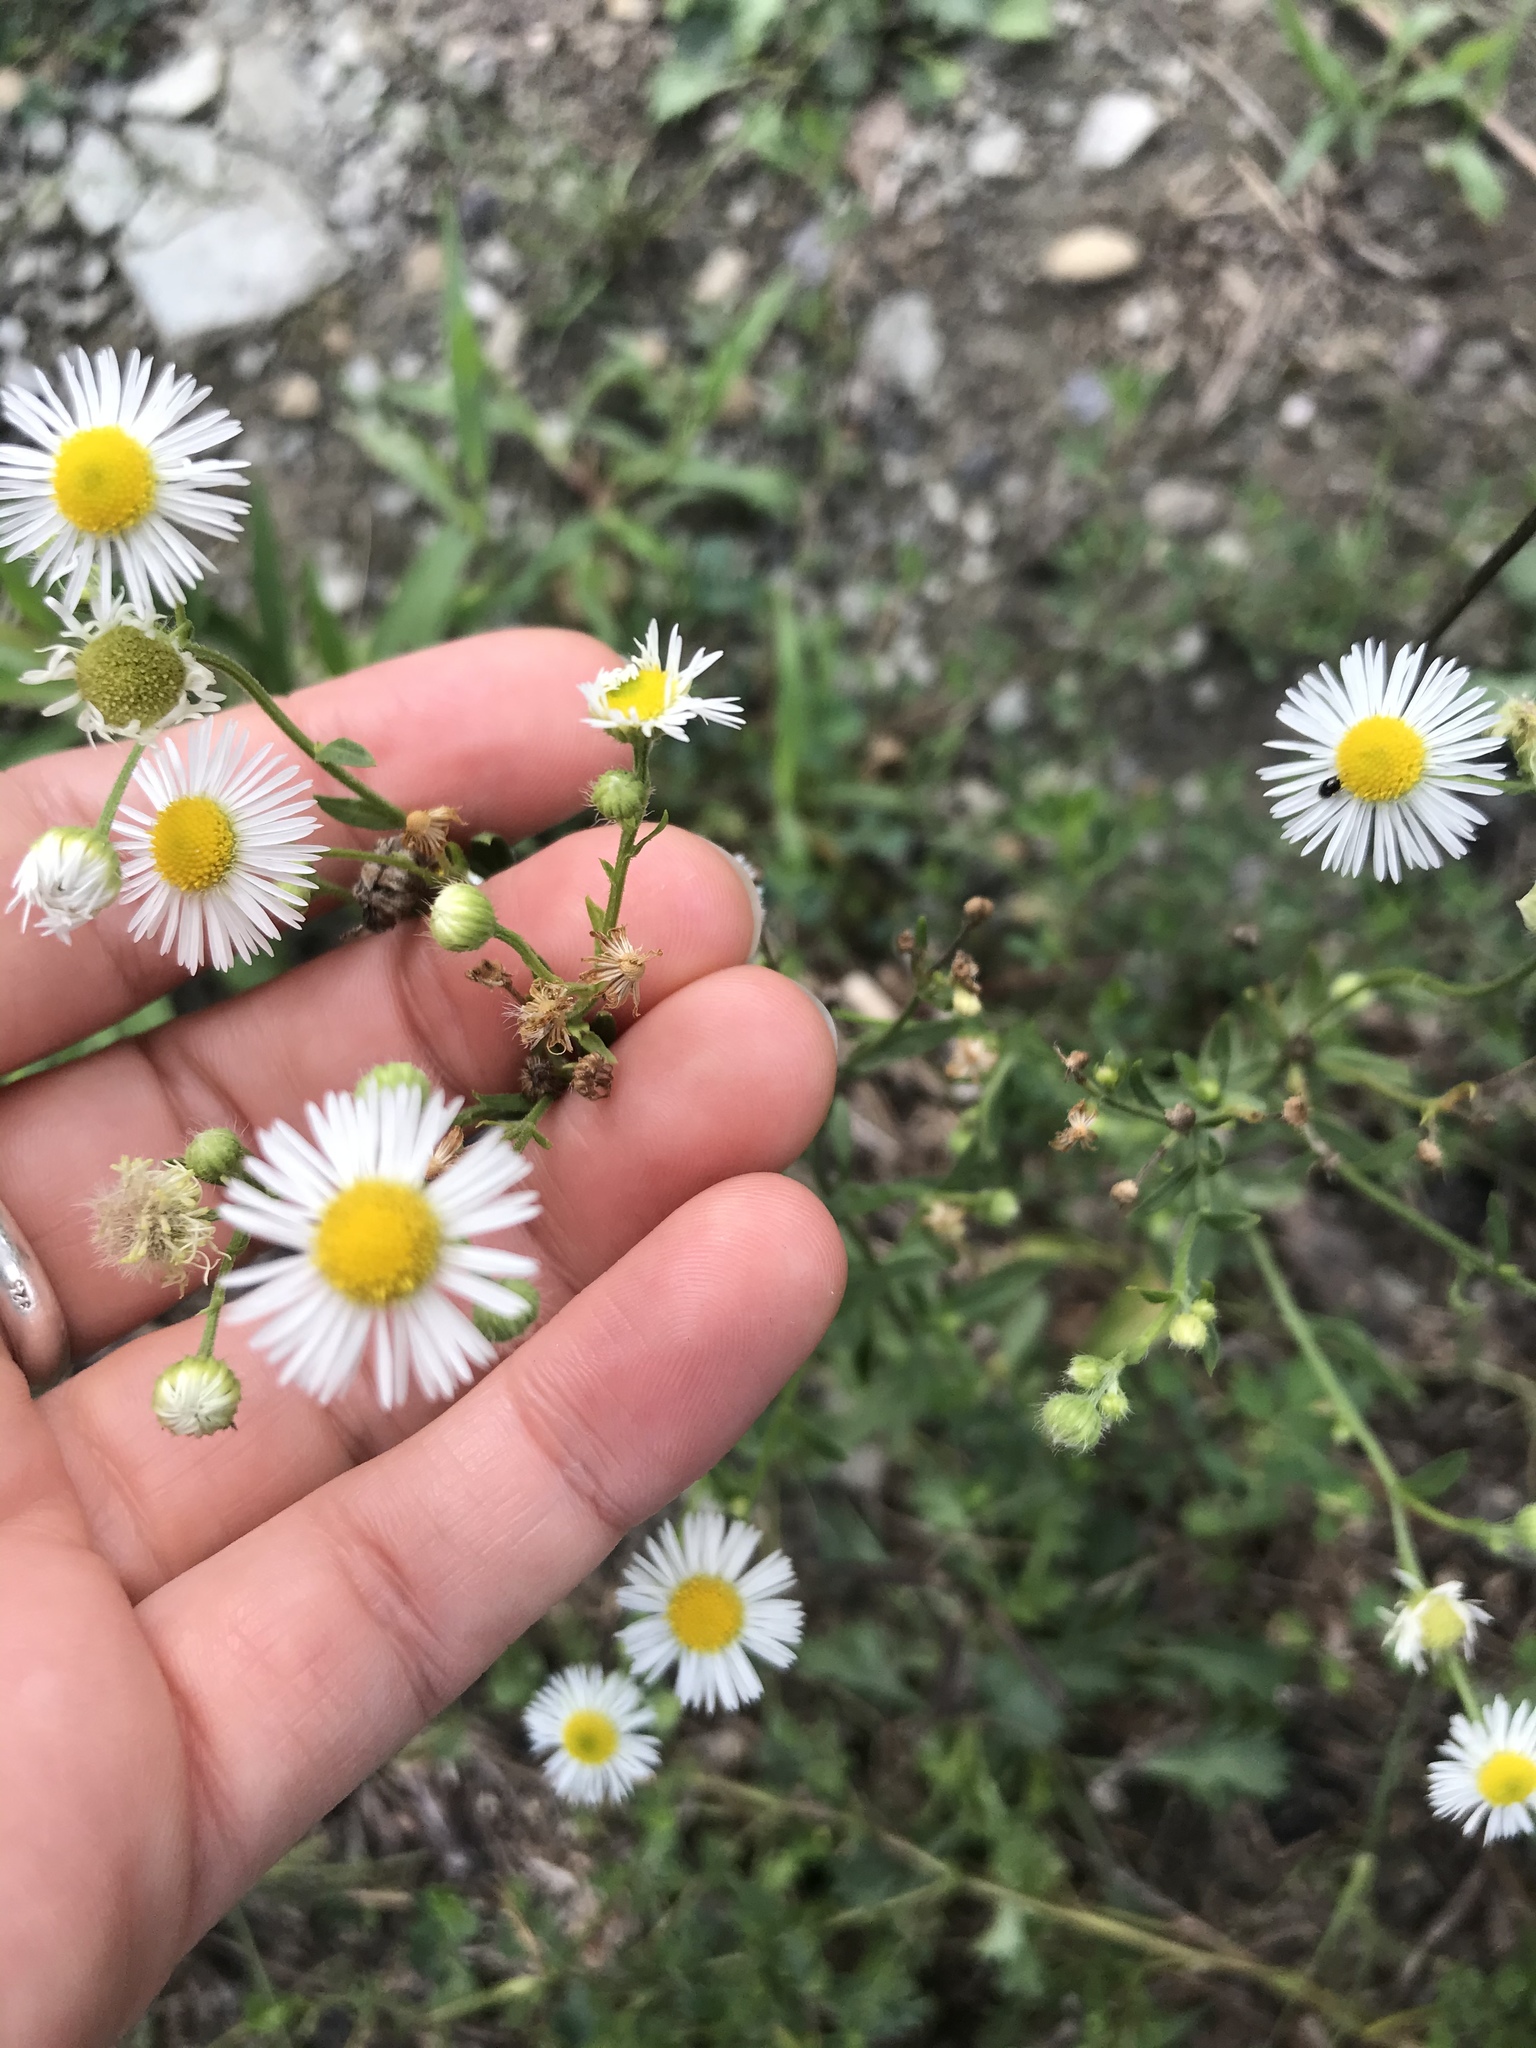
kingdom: Plantae
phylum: Tracheophyta
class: Magnoliopsida
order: Asterales
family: Asteraceae
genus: Erigeron
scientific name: Erigeron philadelphicus
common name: Robin's-plantain
